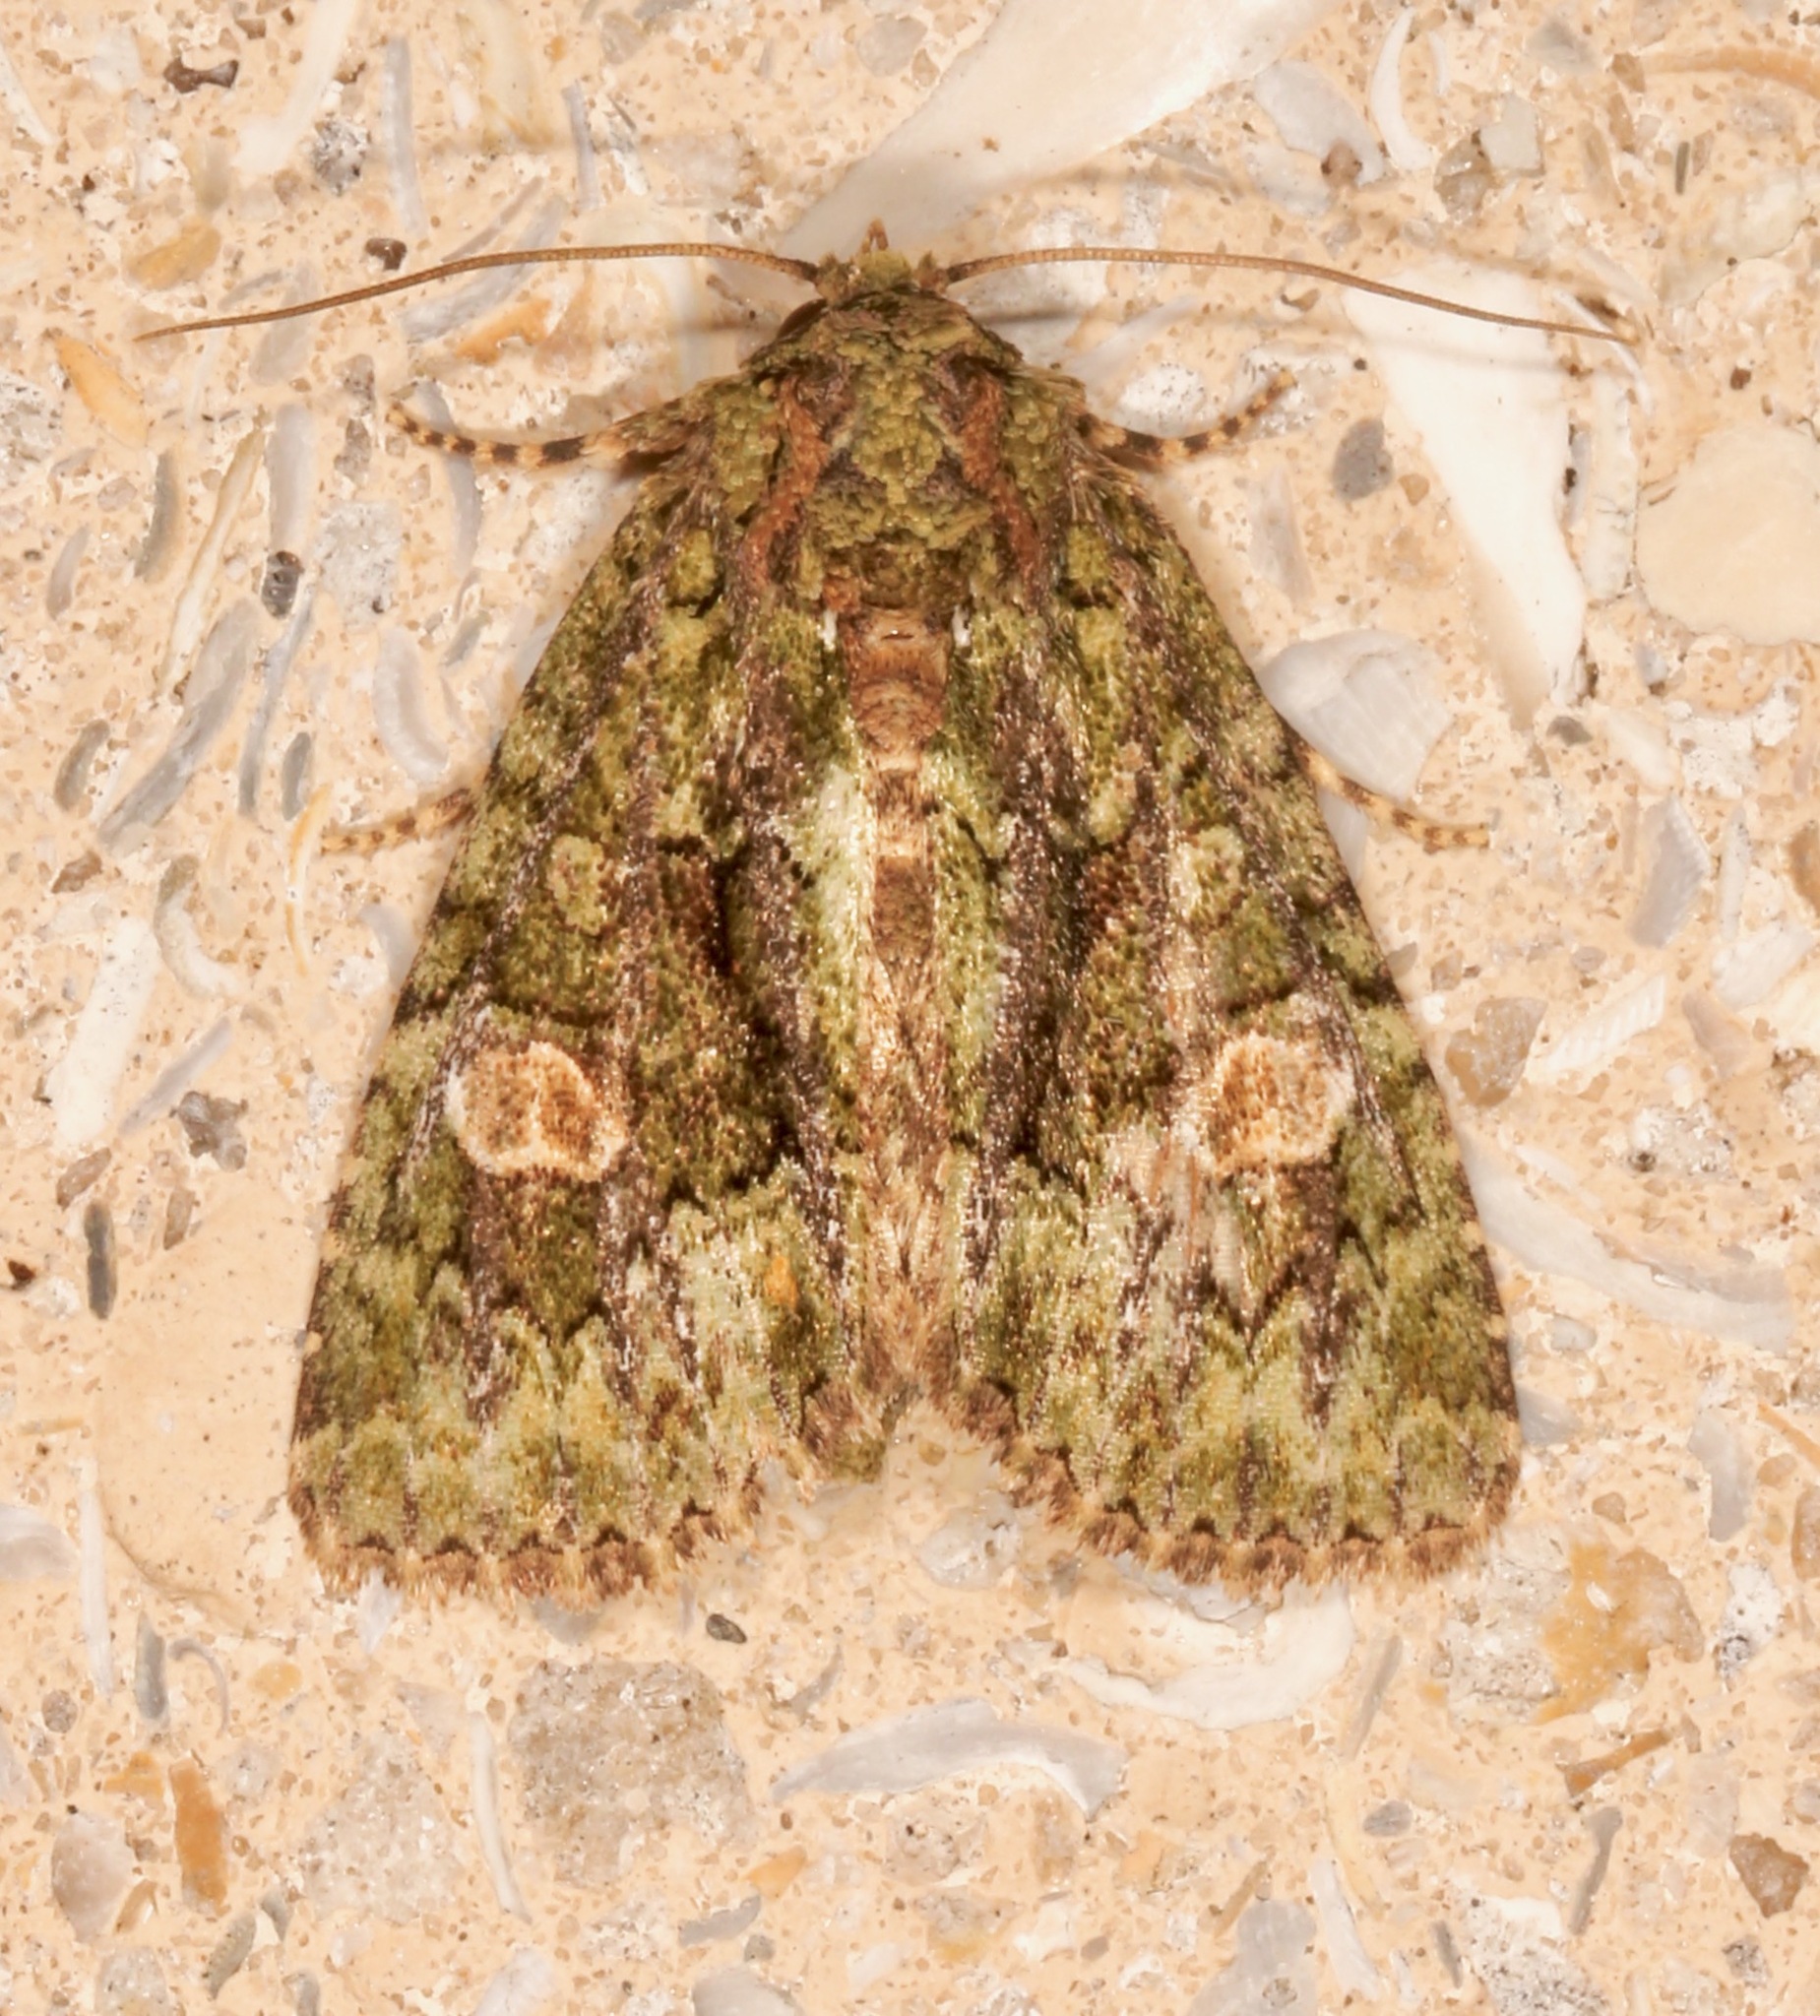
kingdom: Animalia
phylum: Arthropoda
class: Insecta
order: Lepidoptera
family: Noctuidae
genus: Phosphila
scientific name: Phosphila miselioides
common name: Spotted phosphila moth
